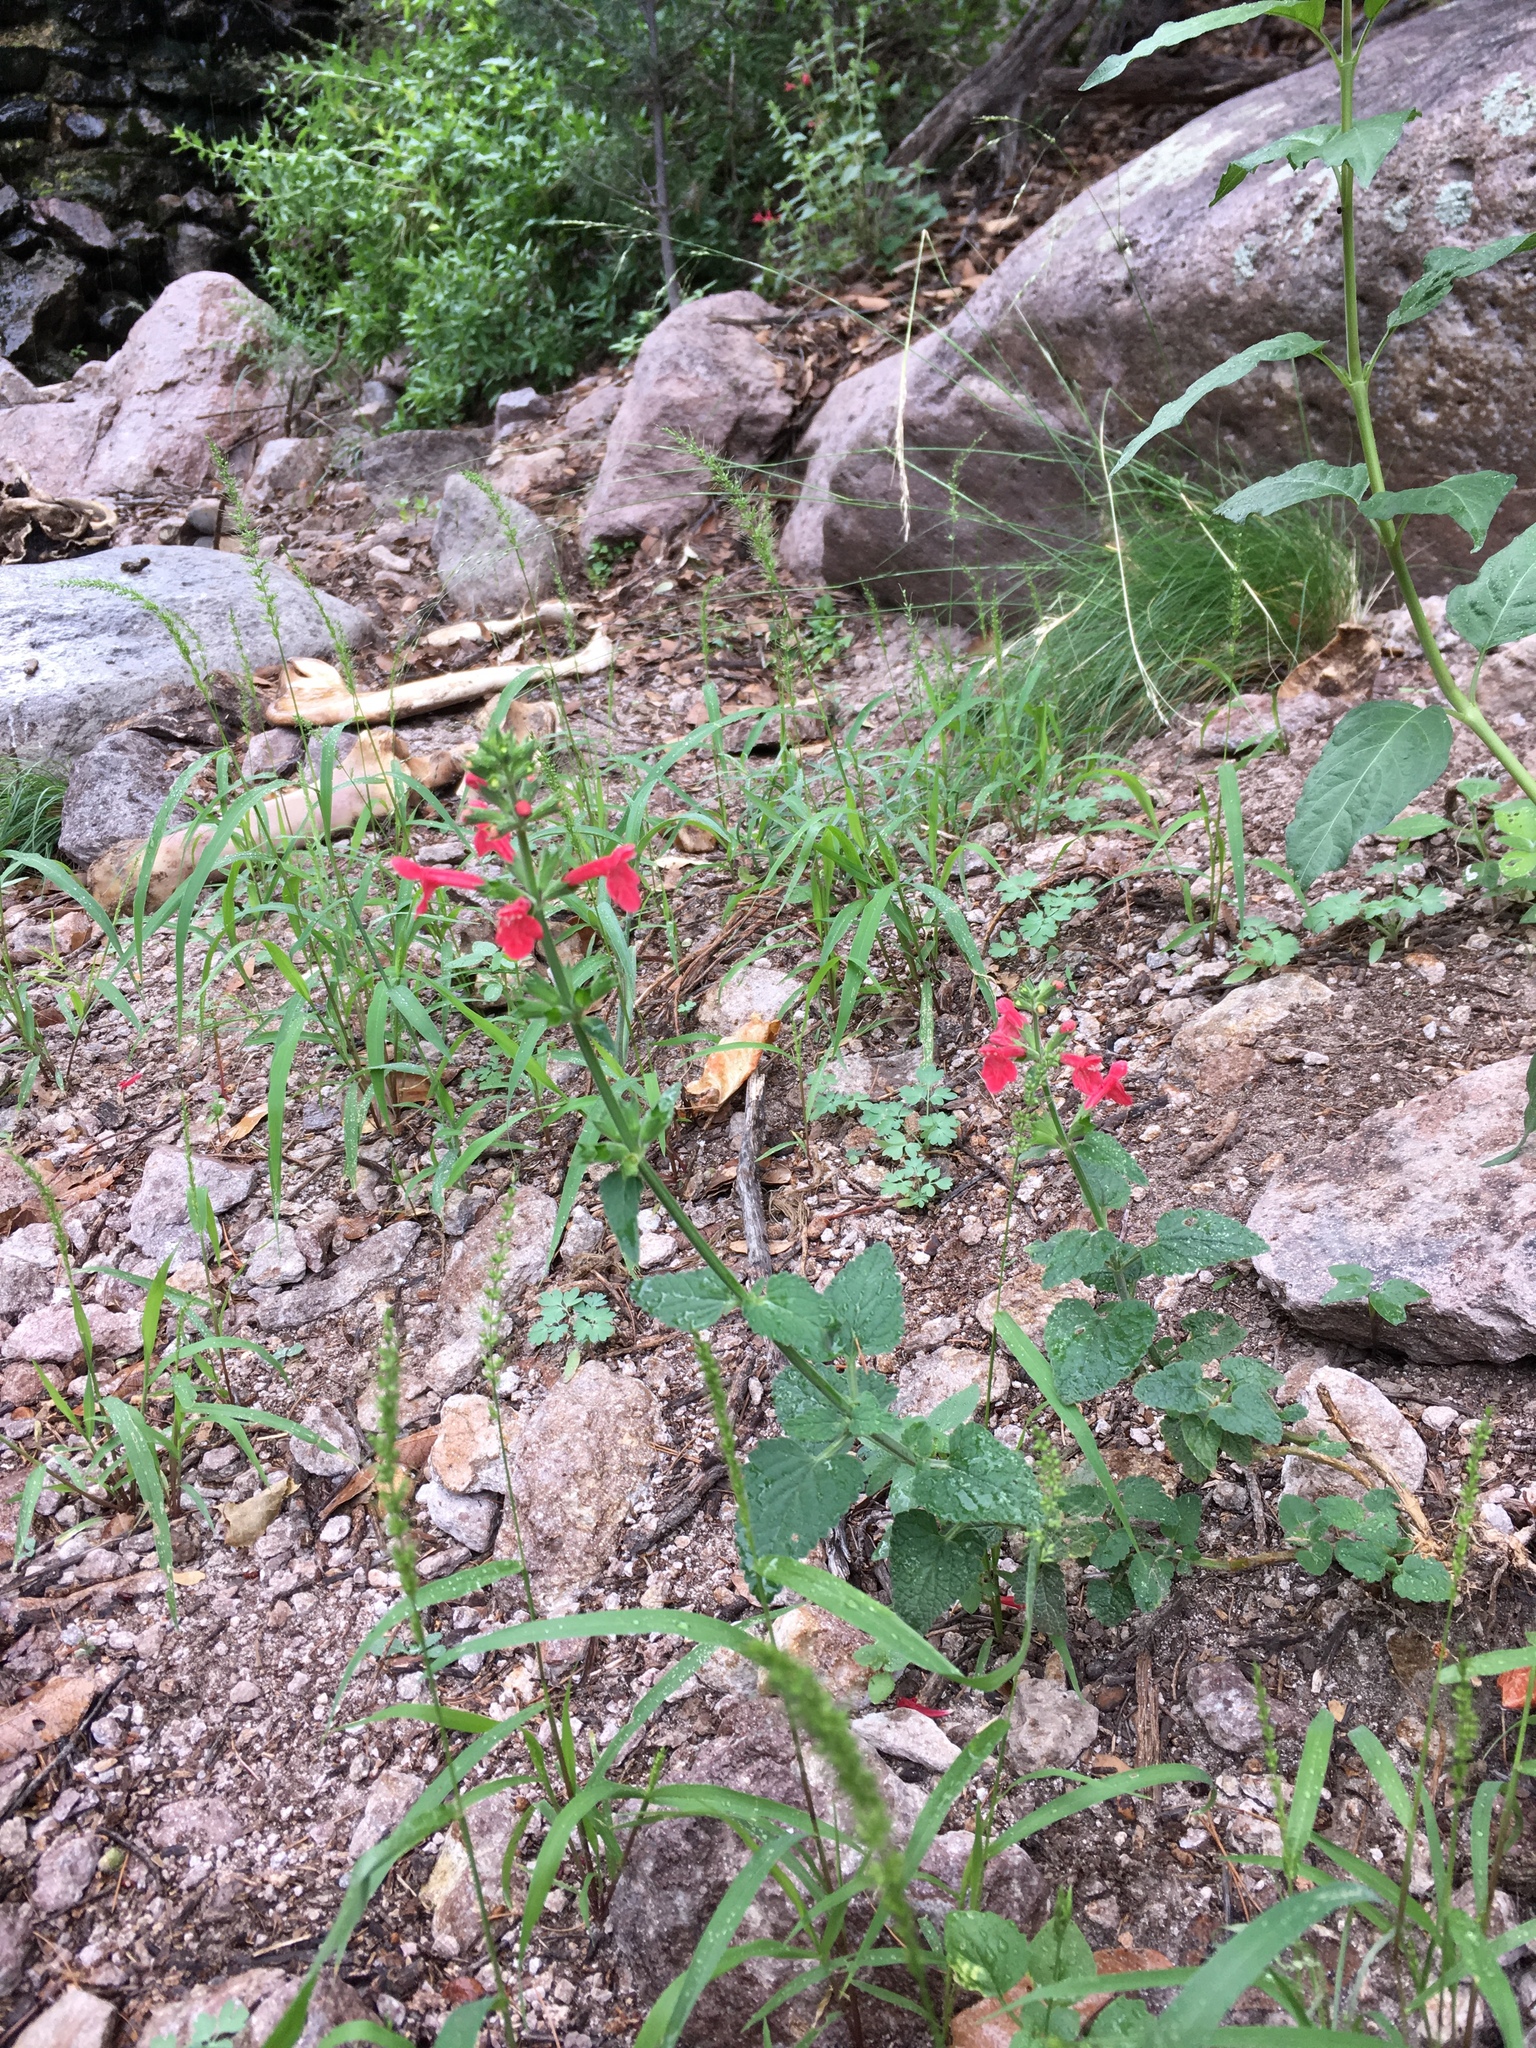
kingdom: Plantae
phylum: Tracheophyta
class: Magnoliopsida
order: Lamiales
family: Lamiaceae
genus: Stachys
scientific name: Stachys coccinea
